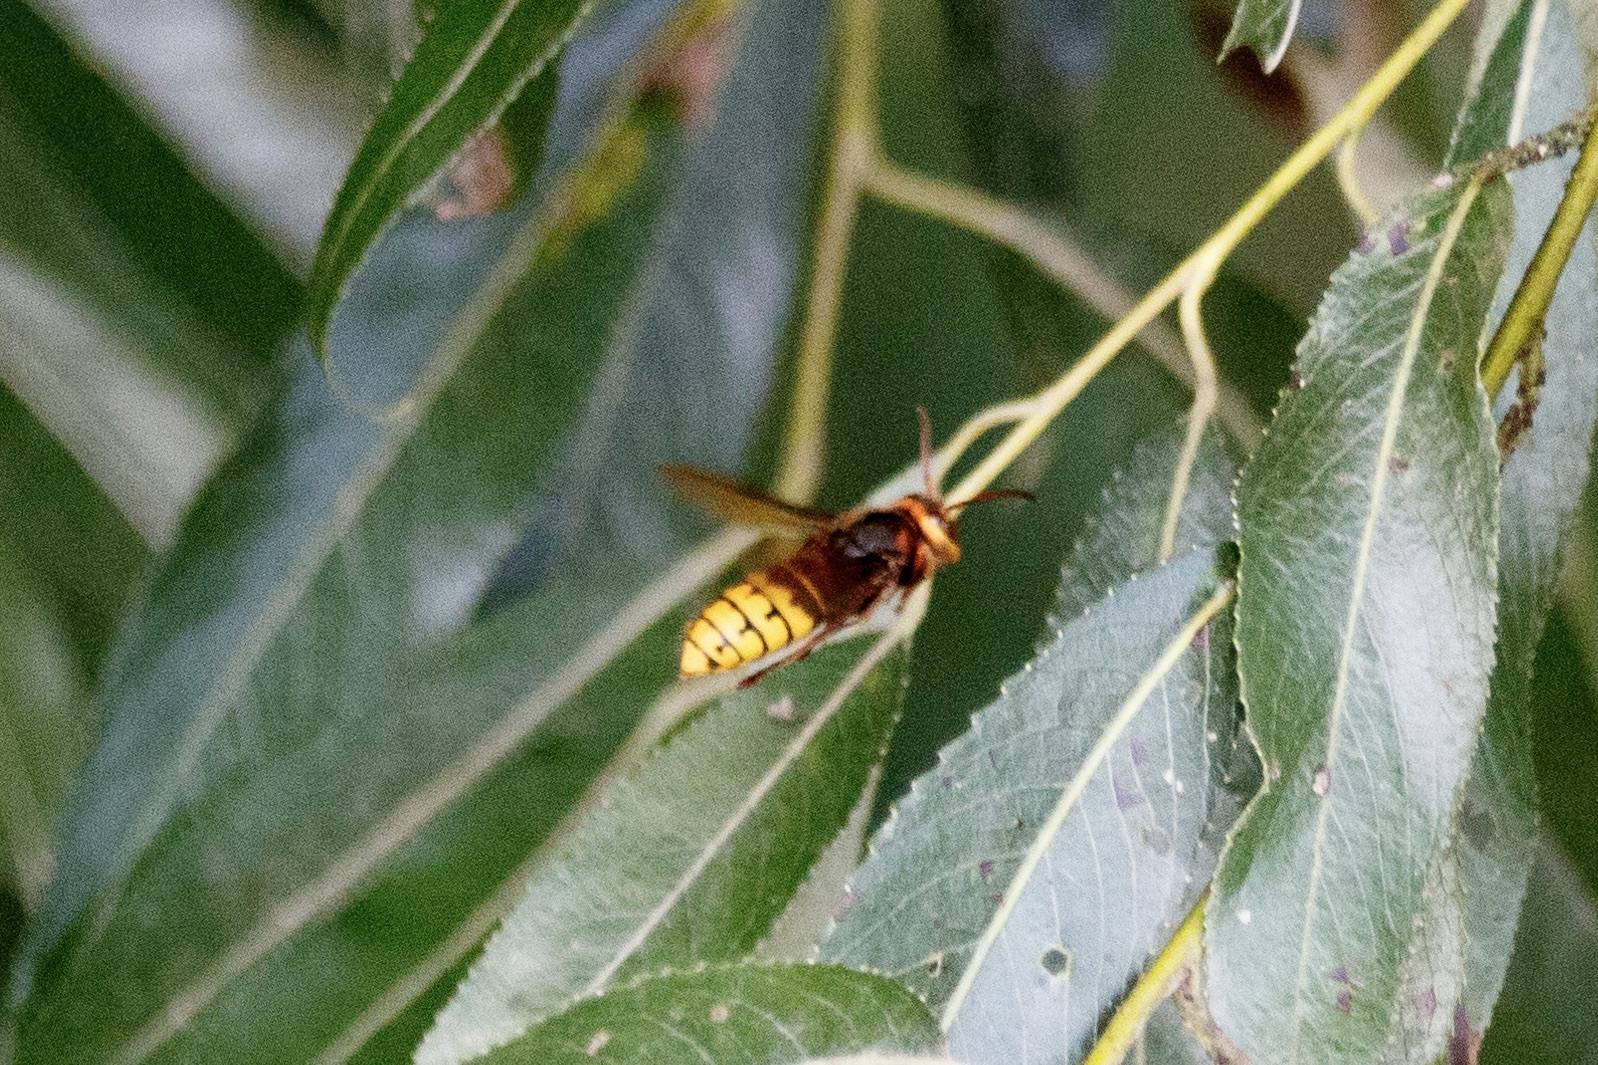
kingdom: Animalia
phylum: Arthropoda
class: Insecta
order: Hymenoptera
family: Vespidae
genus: Vespa
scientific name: Vespa crabro
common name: Hornet
